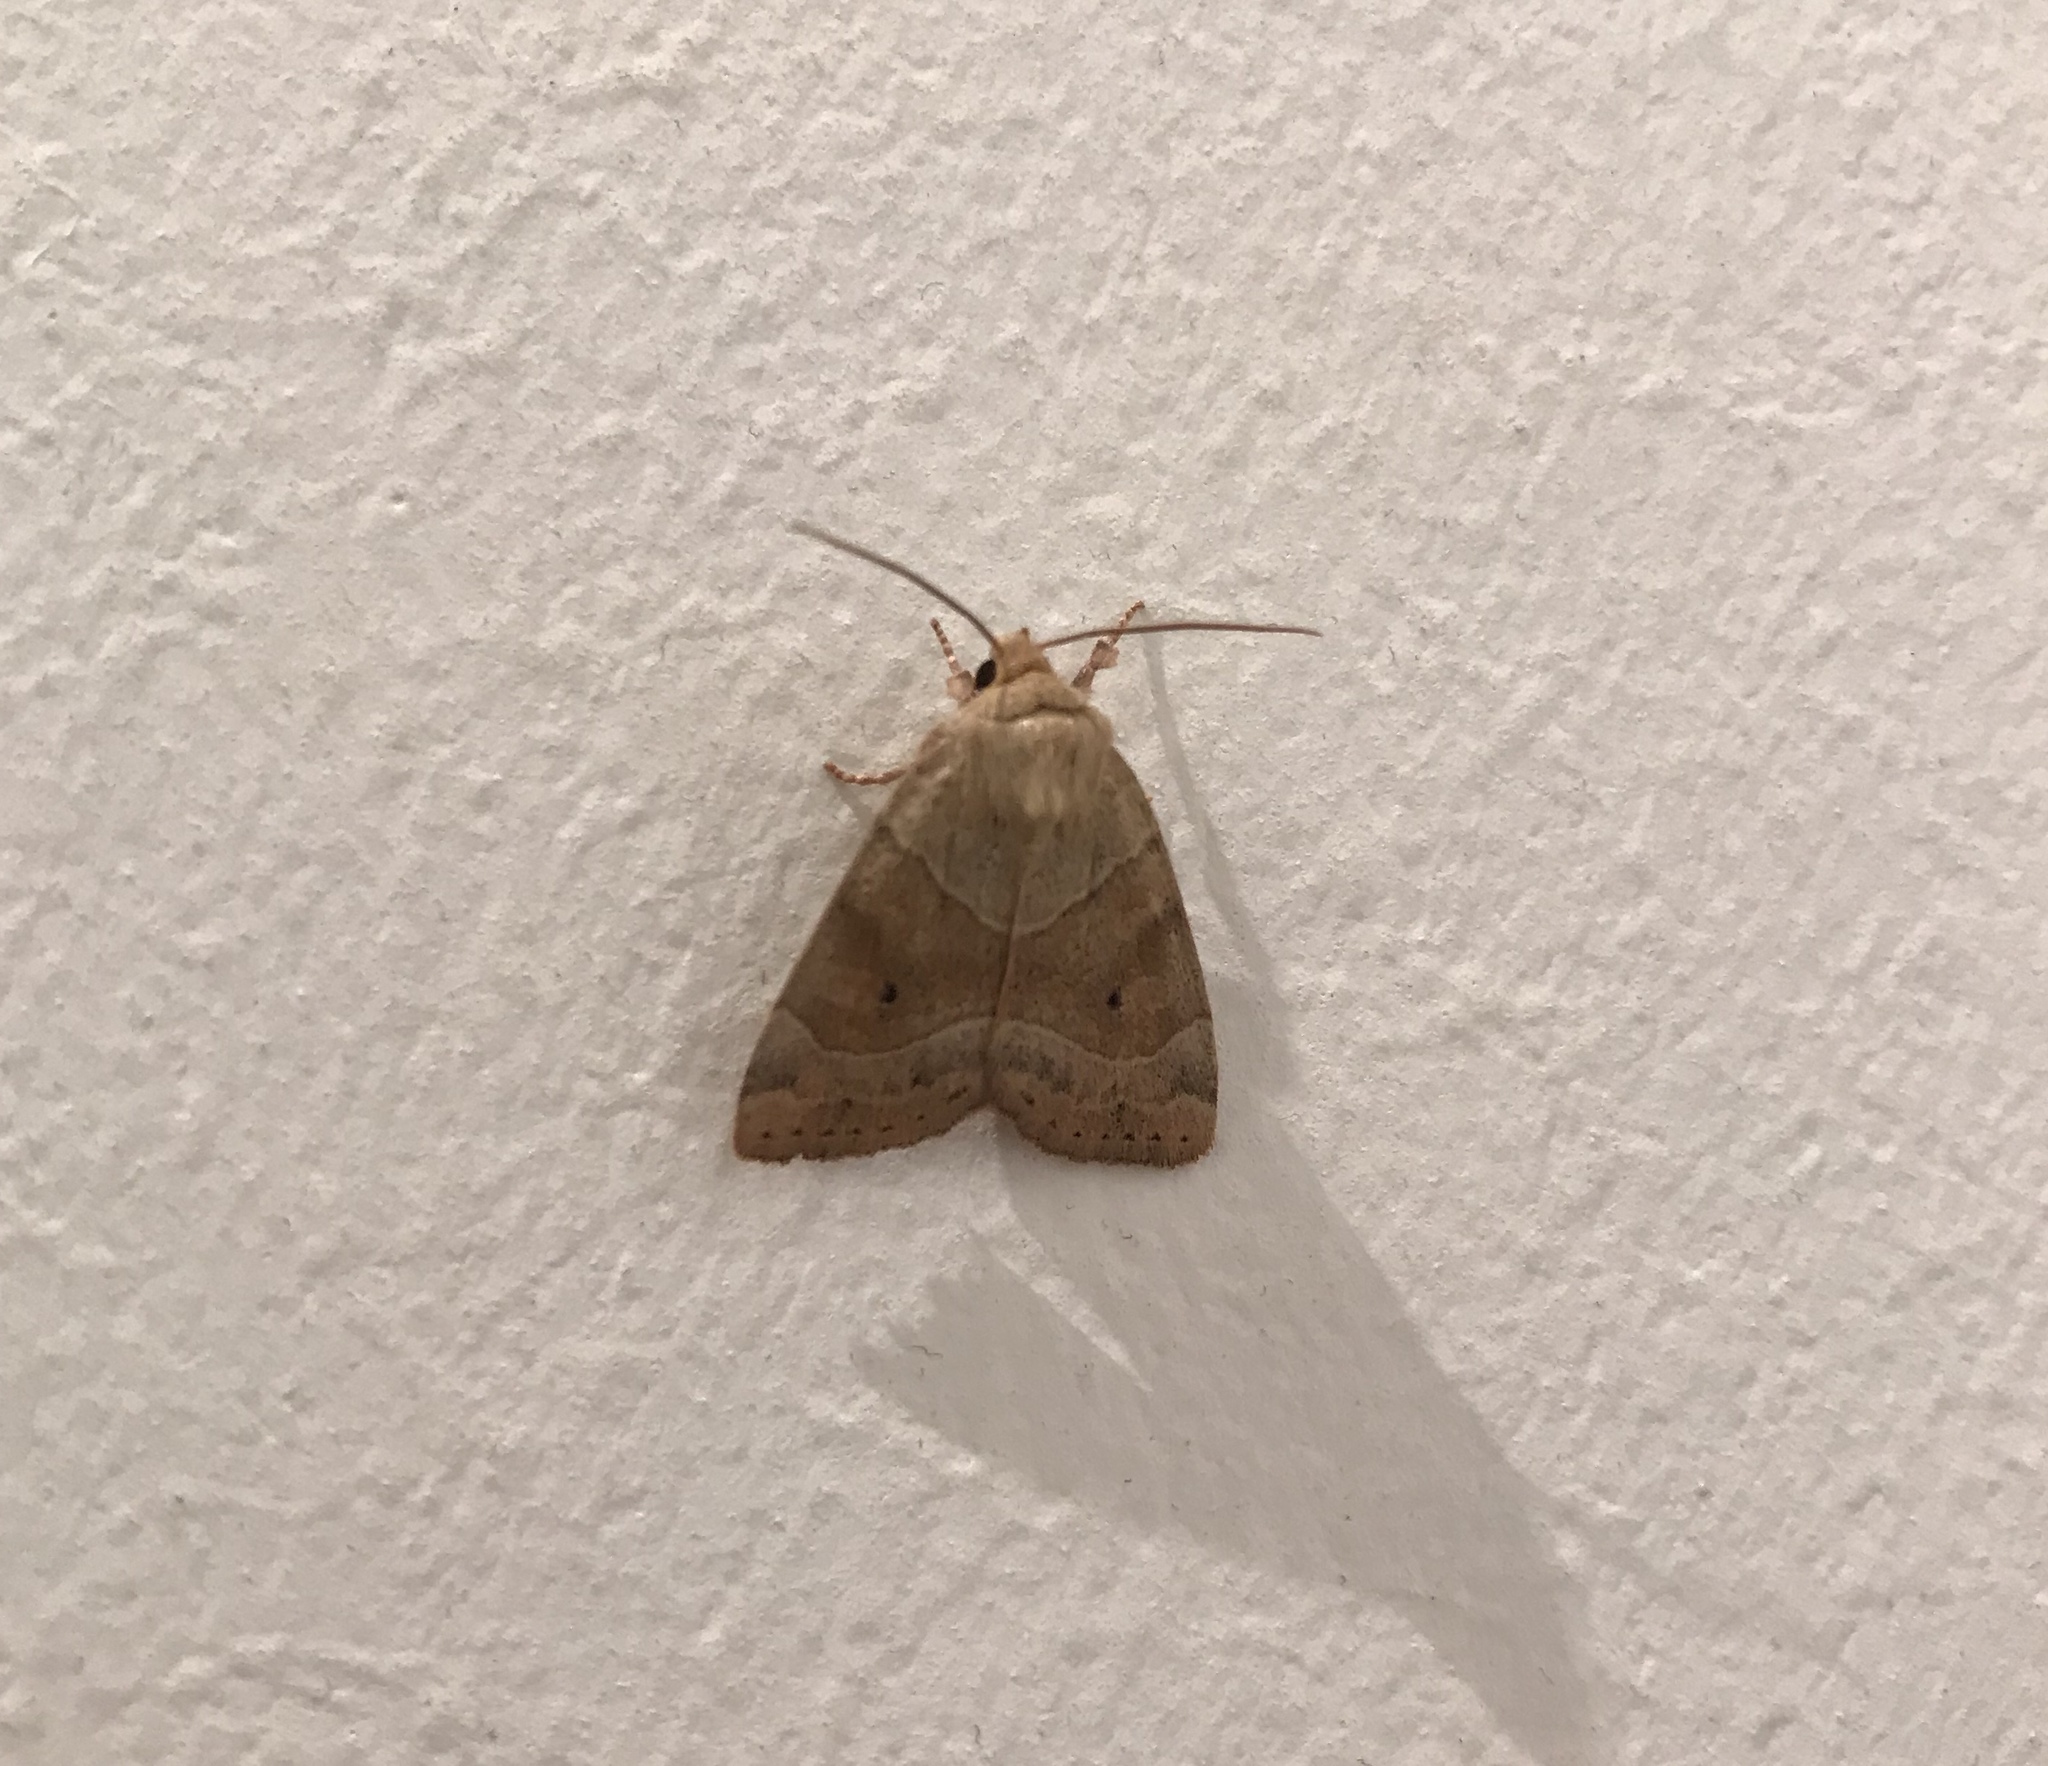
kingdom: Animalia
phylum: Arthropoda
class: Insecta
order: Lepidoptera
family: Noctuidae
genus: Cosmia
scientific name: Cosmia trapezina
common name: Dun-bar
